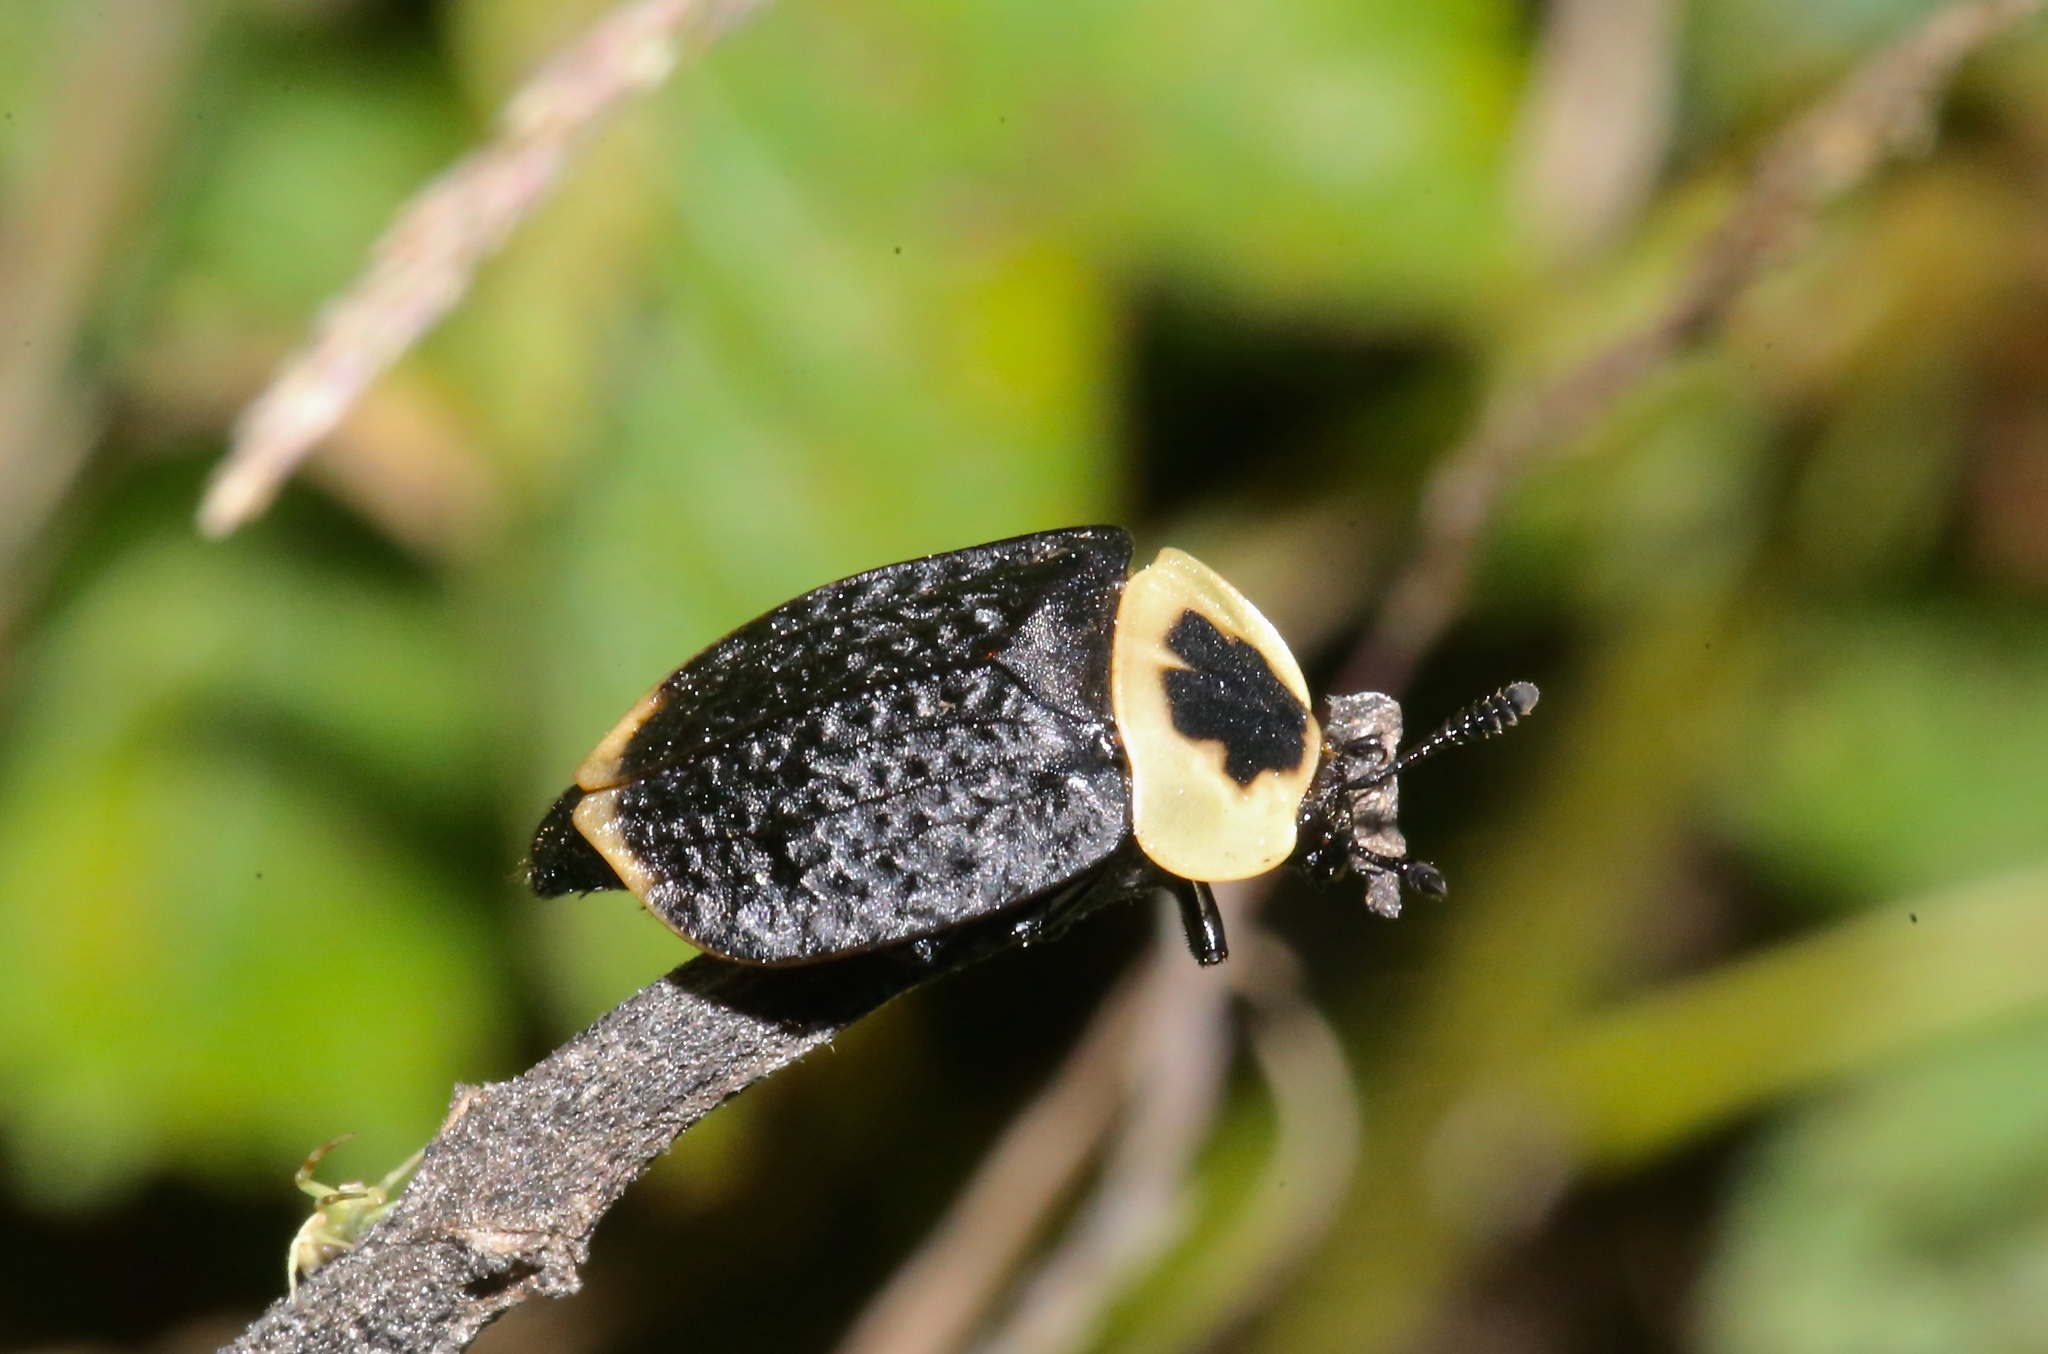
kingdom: Animalia
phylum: Arthropoda
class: Insecta
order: Coleoptera
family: Staphylinidae
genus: Necrophila
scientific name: Necrophila americana
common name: American carrion beetle
